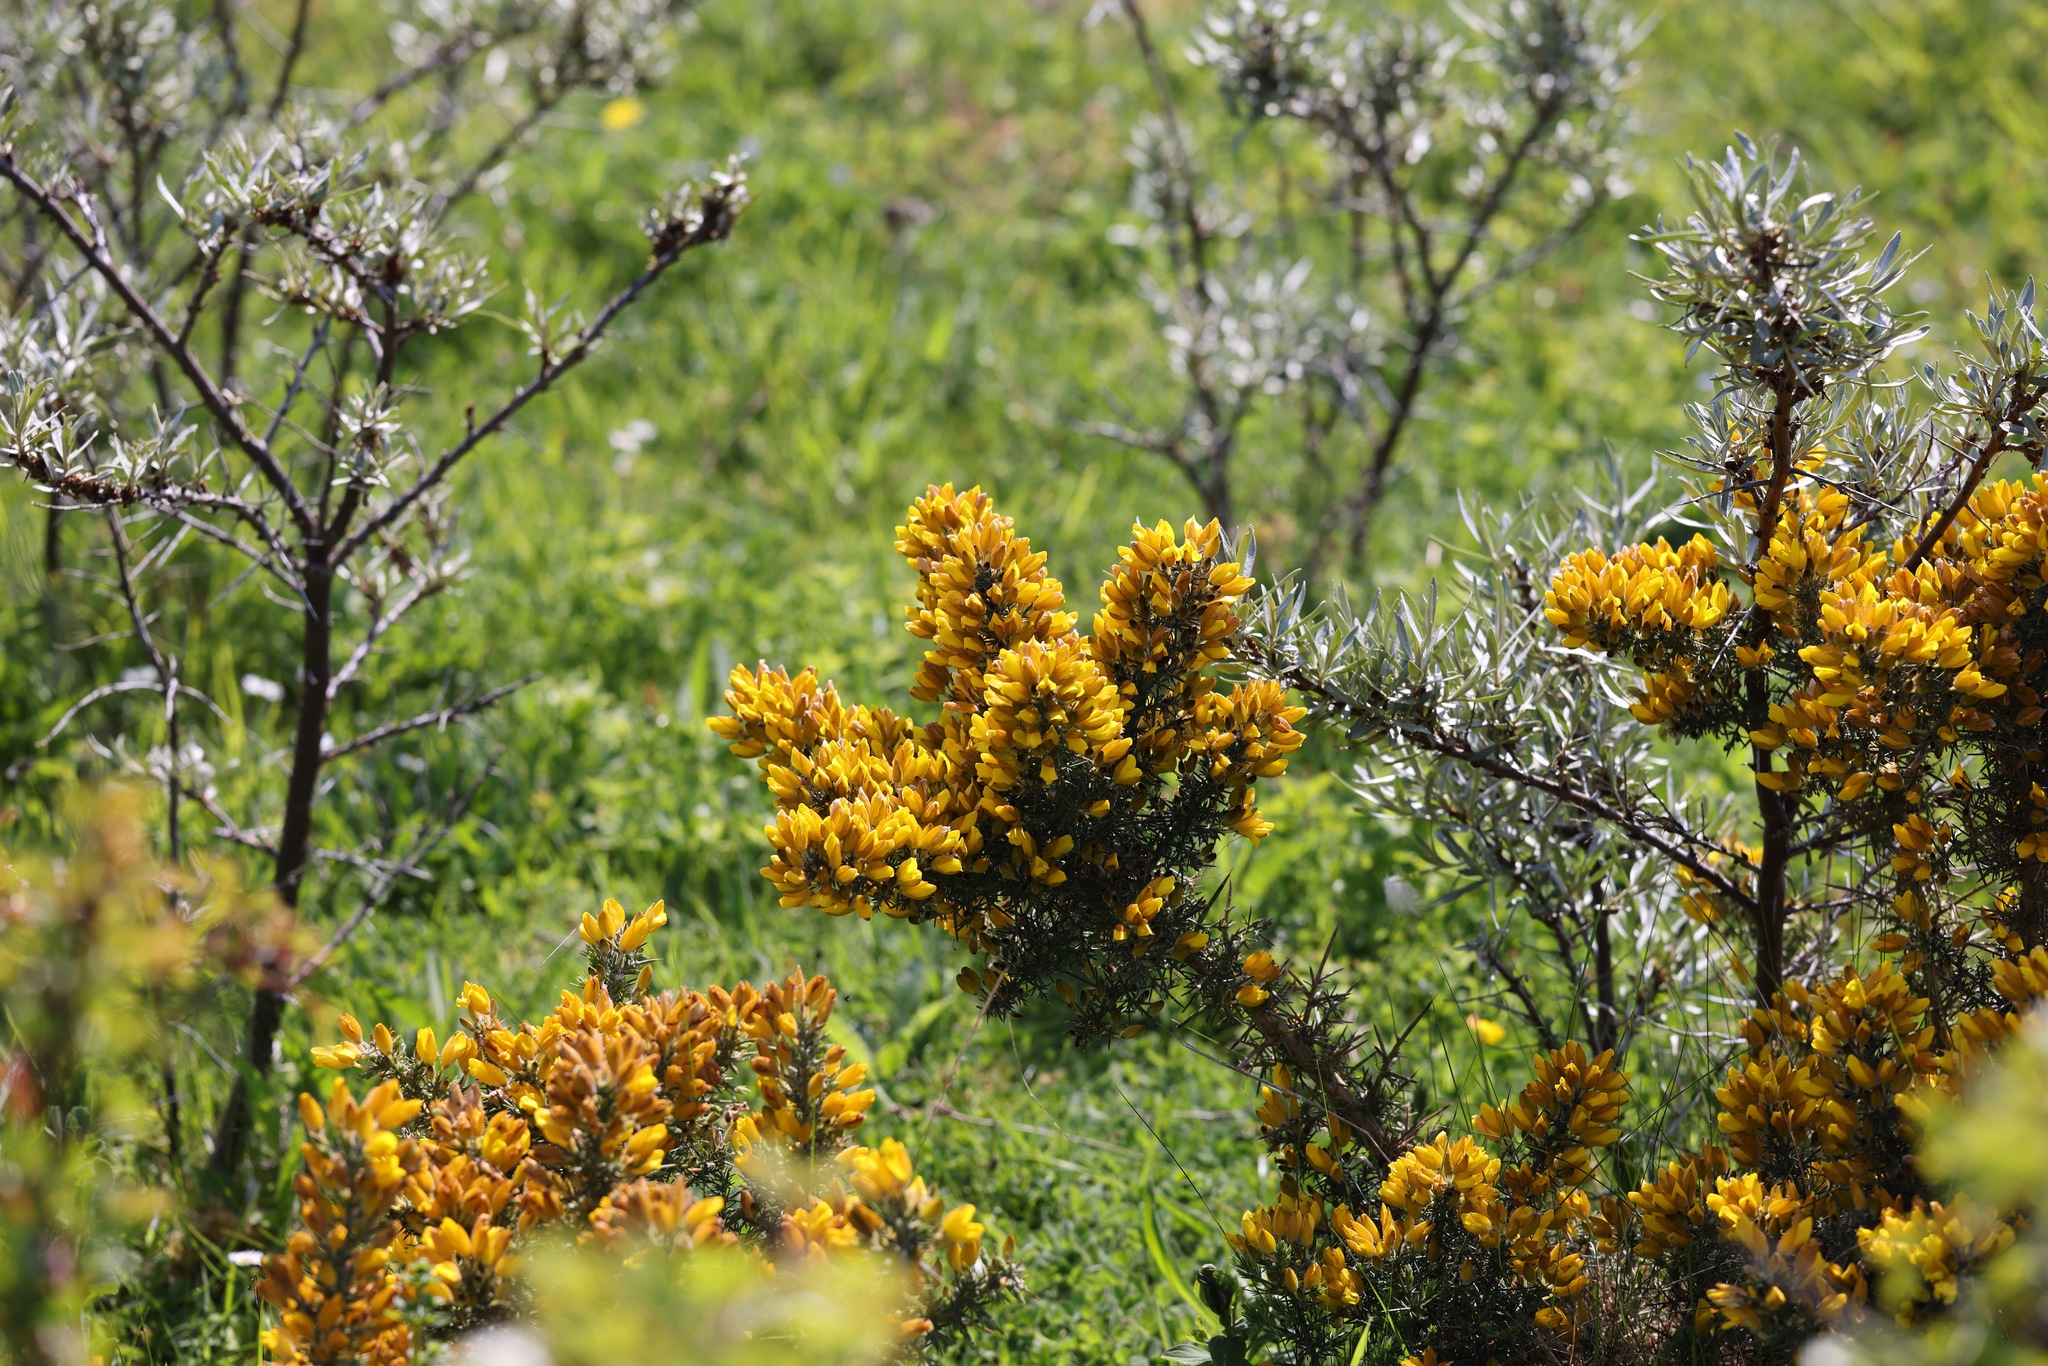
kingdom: Plantae
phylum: Tracheophyta
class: Magnoliopsida
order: Fabales
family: Fabaceae
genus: Ulex
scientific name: Ulex europaeus
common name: Common gorse
